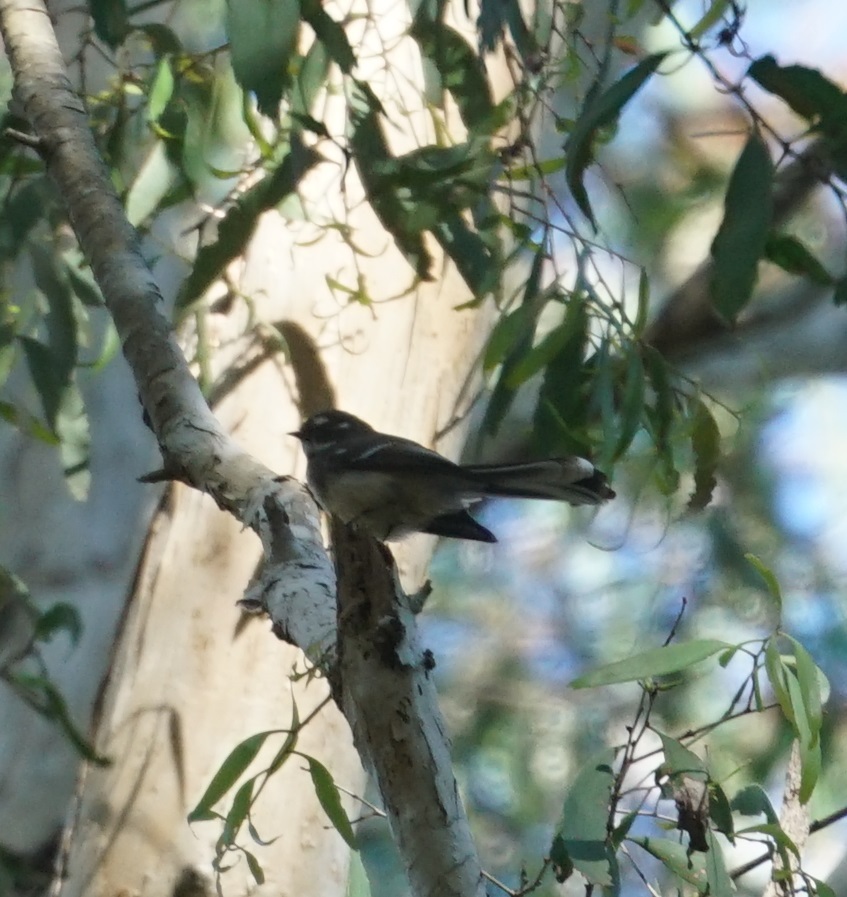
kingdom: Animalia
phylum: Chordata
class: Aves
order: Passeriformes
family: Rhipiduridae
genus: Rhipidura
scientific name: Rhipidura albiscapa
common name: Grey fantail
